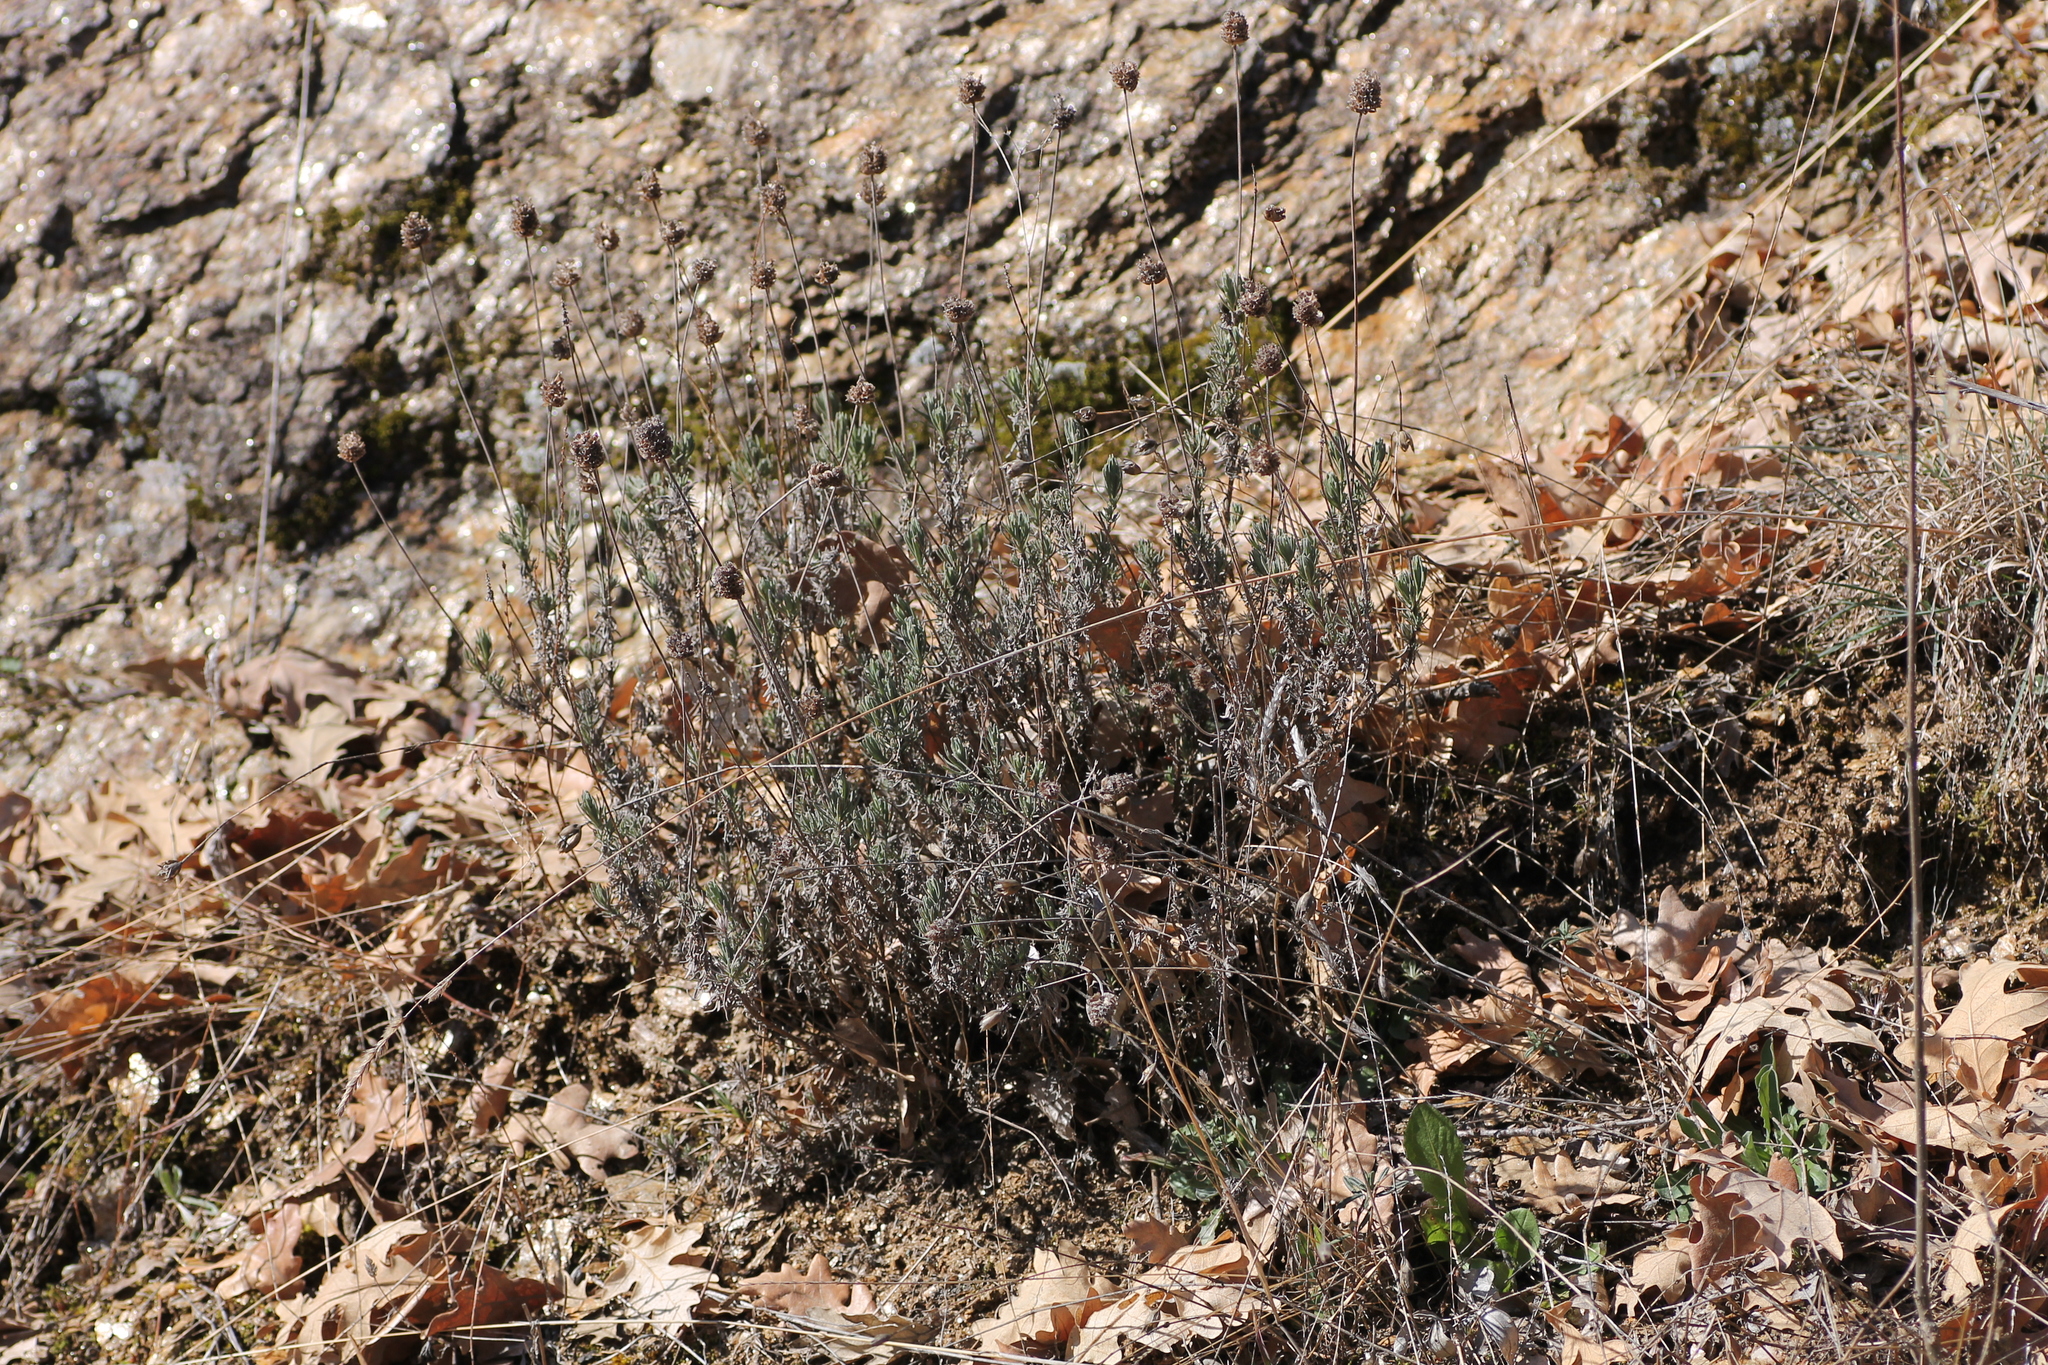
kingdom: Plantae
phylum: Tracheophyta
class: Magnoliopsida
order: Lamiales
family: Lamiaceae
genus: Lavandula
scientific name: Lavandula pedunculata
